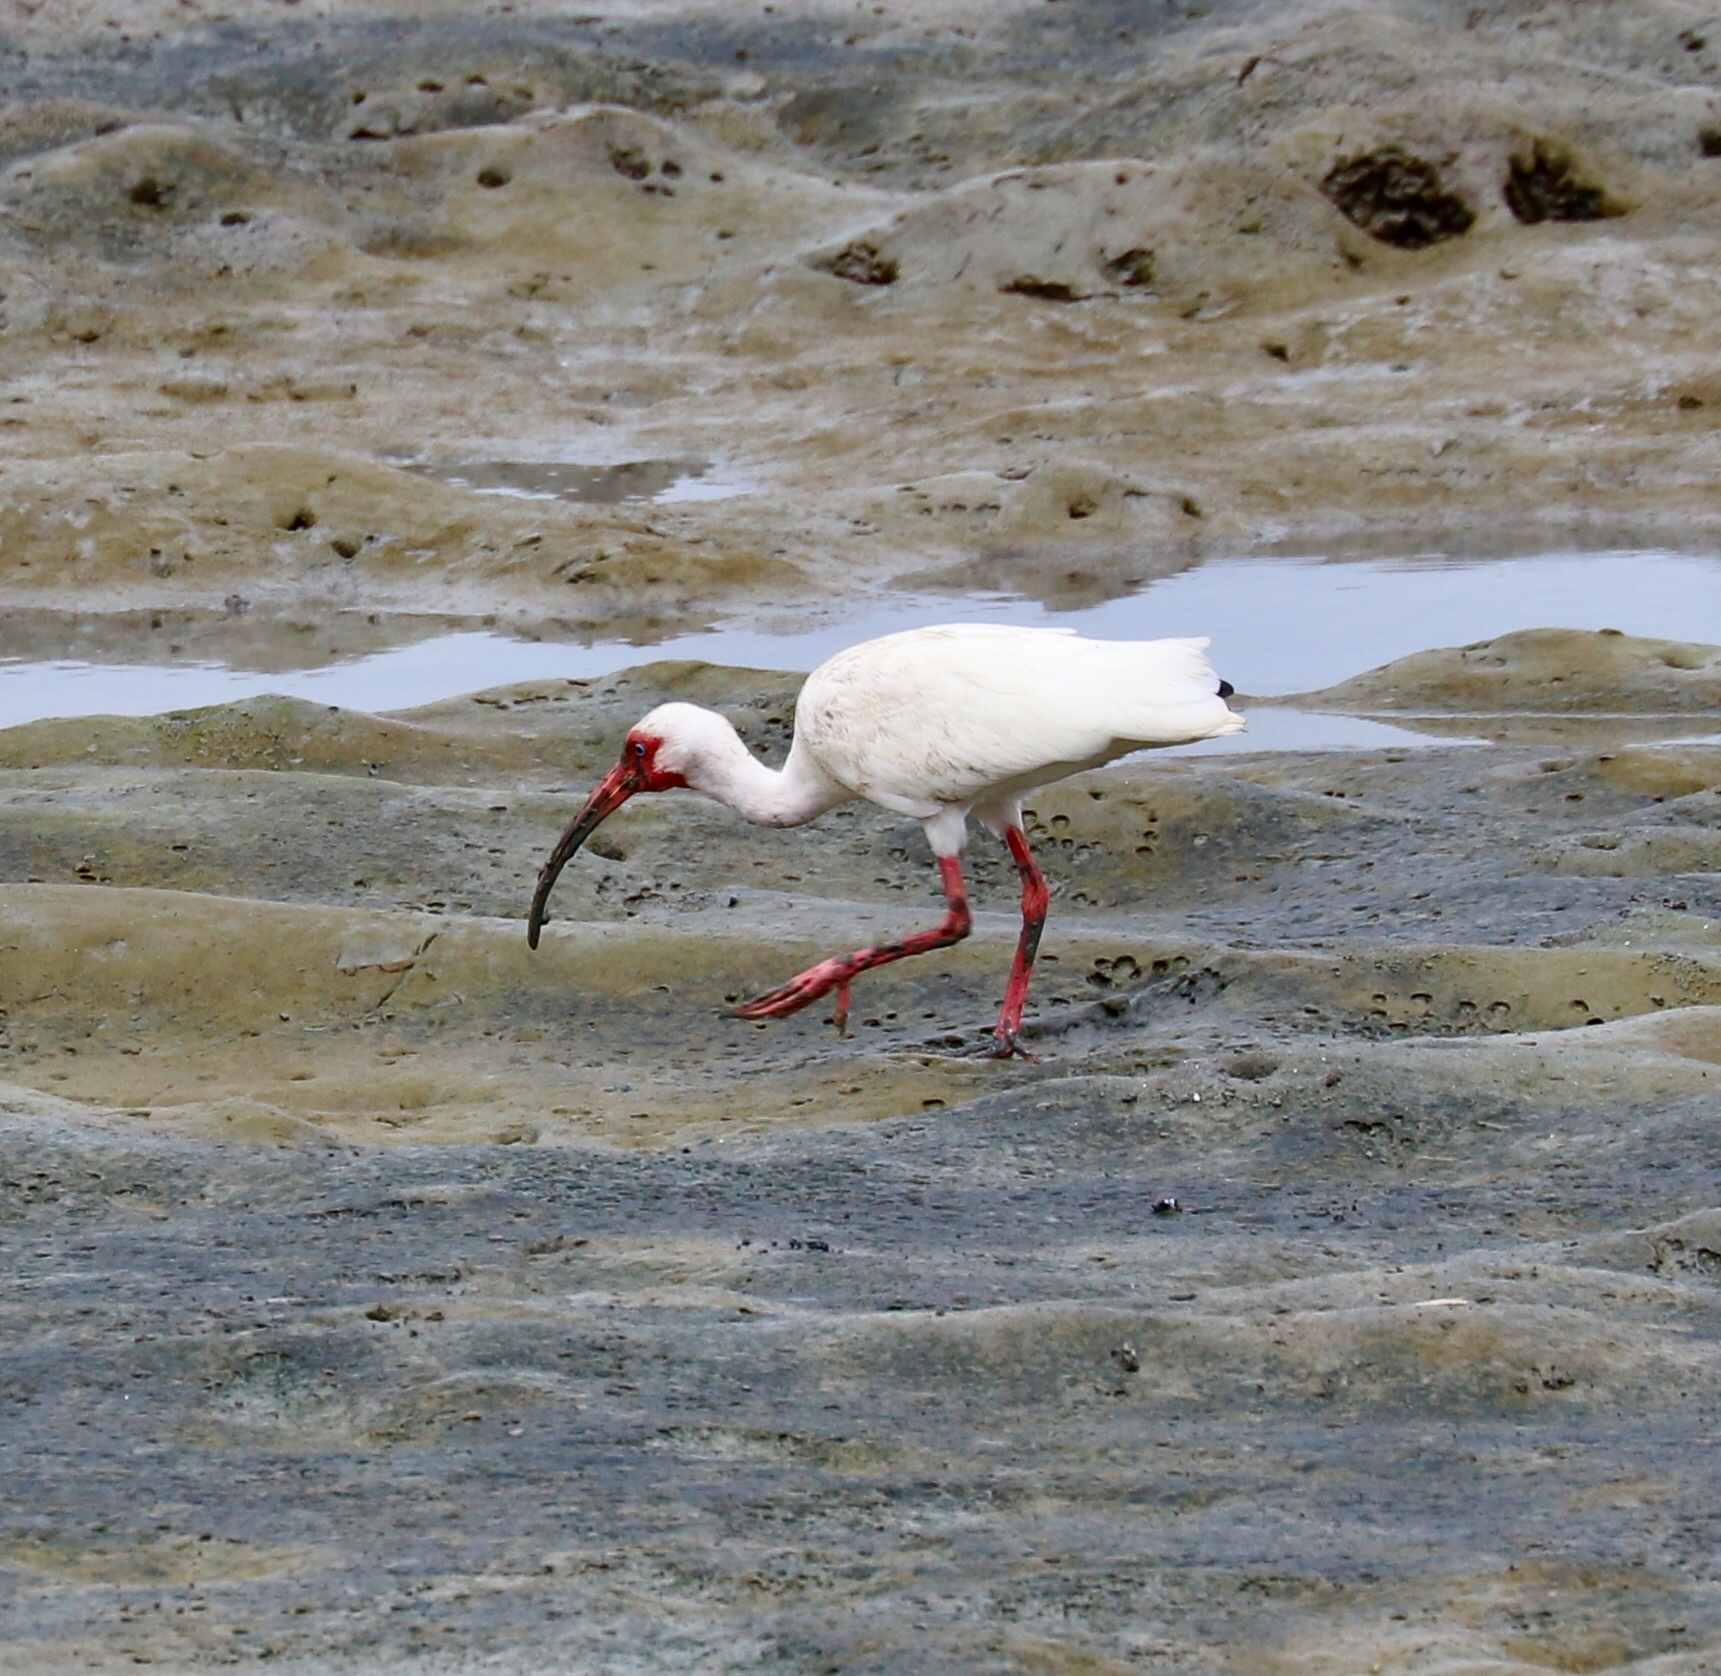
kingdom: Animalia
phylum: Chordata
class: Aves
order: Pelecaniformes
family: Threskiornithidae
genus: Eudocimus
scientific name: Eudocimus albus
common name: White ibis
